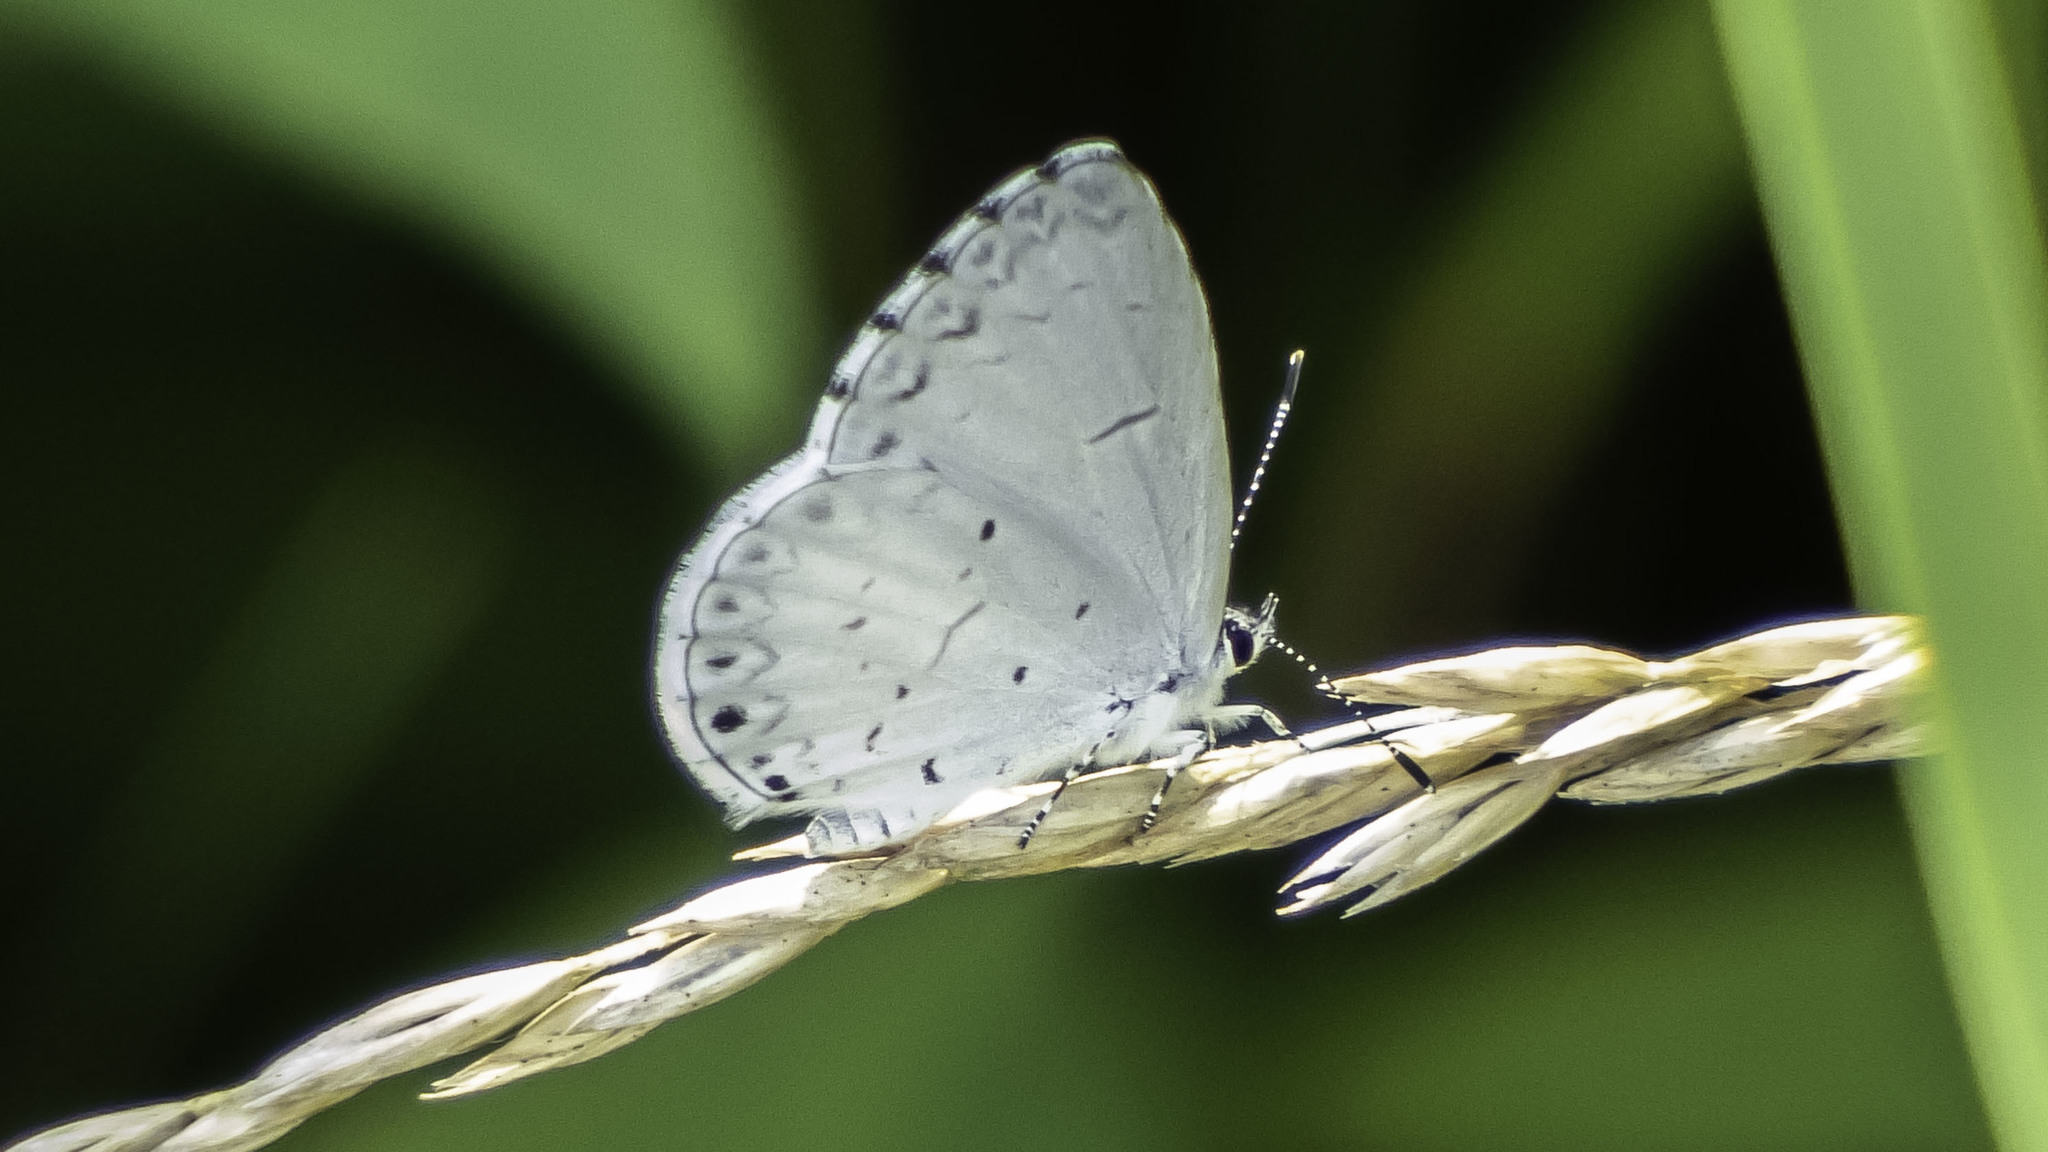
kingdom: Animalia
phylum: Arthropoda
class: Insecta
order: Lepidoptera
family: Lycaenidae
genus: Cyaniris
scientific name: Cyaniris neglecta
